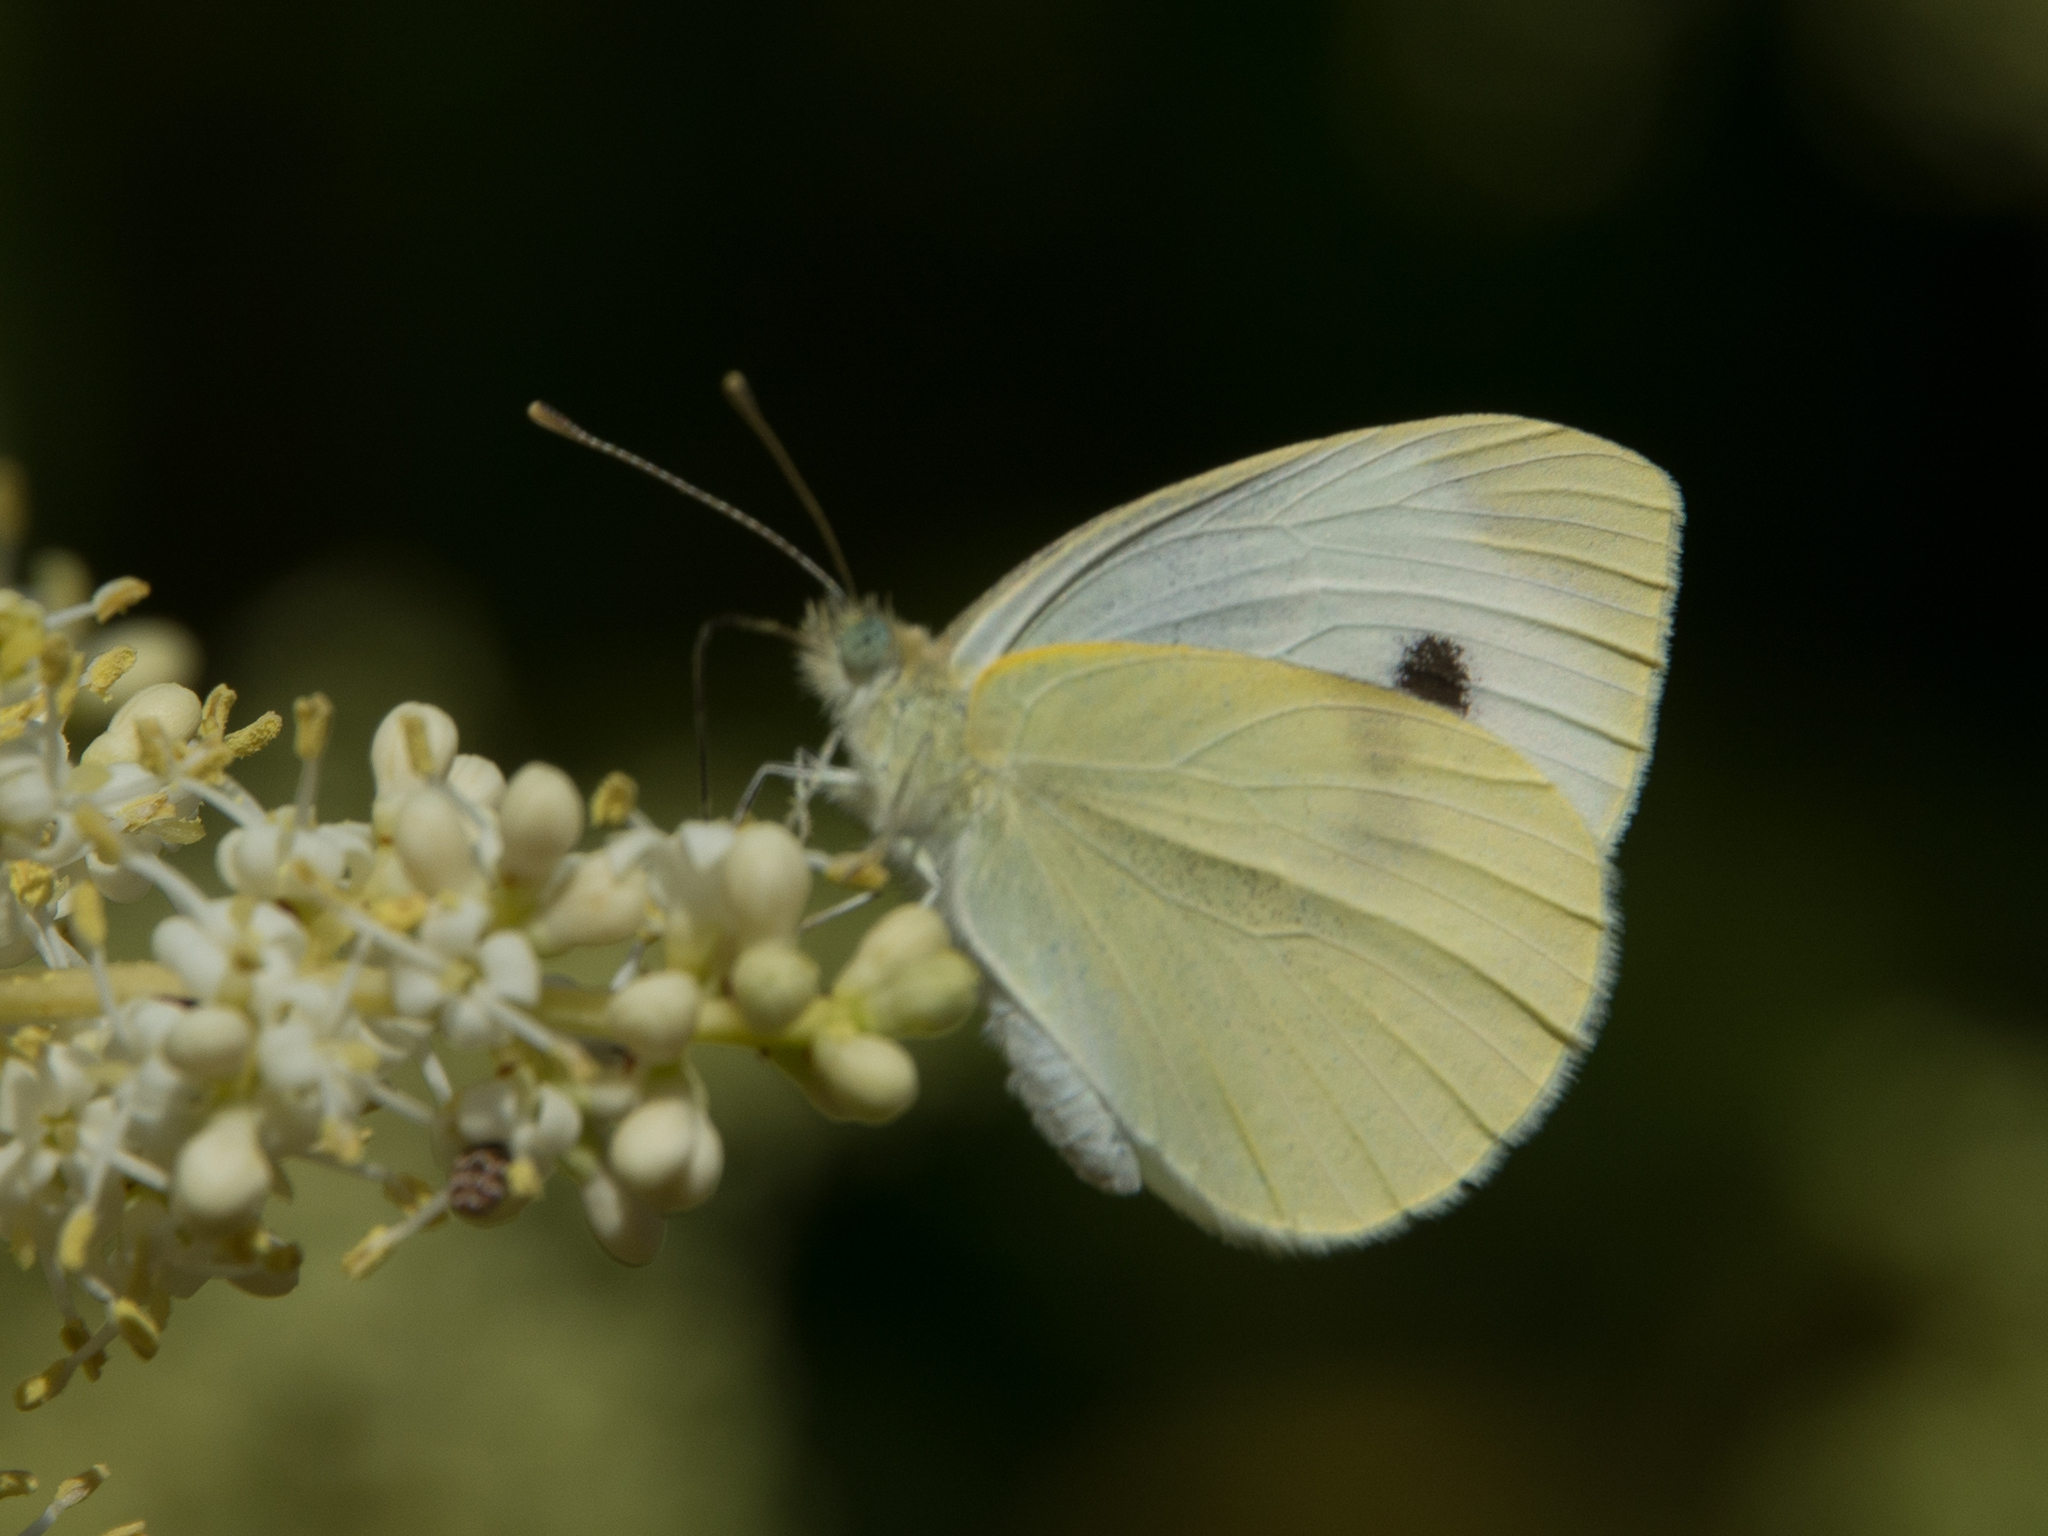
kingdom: Animalia
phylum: Arthropoda
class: Insecta
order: Lepidoptera
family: Pieridae
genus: Pieris
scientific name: Pieris rapae
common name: Small white
